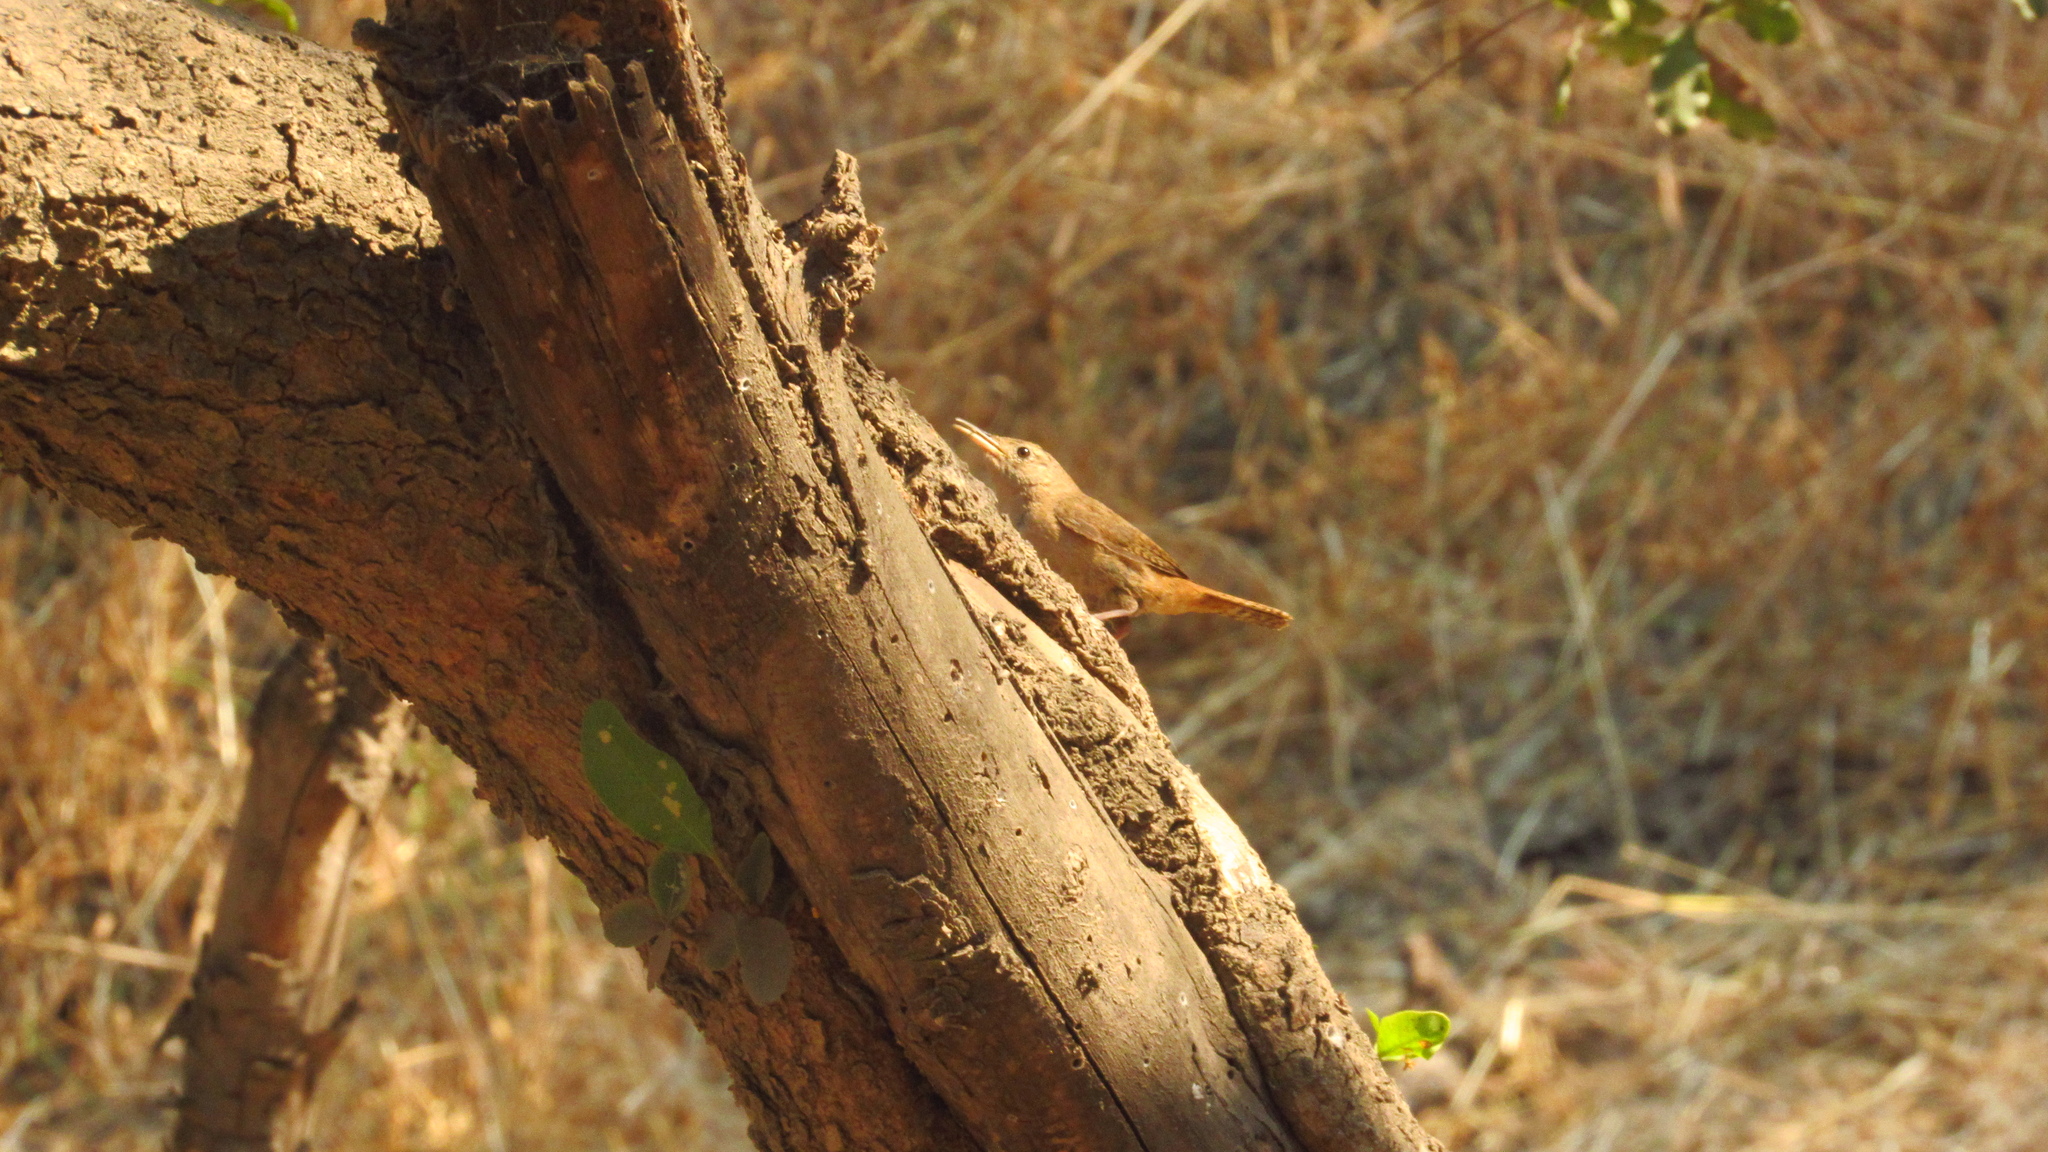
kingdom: Animalia
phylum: Chordata
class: Aves
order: Passeriformes
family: Troglodytidae
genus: Troglodytes
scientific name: Troglodytes aedon
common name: House wren
